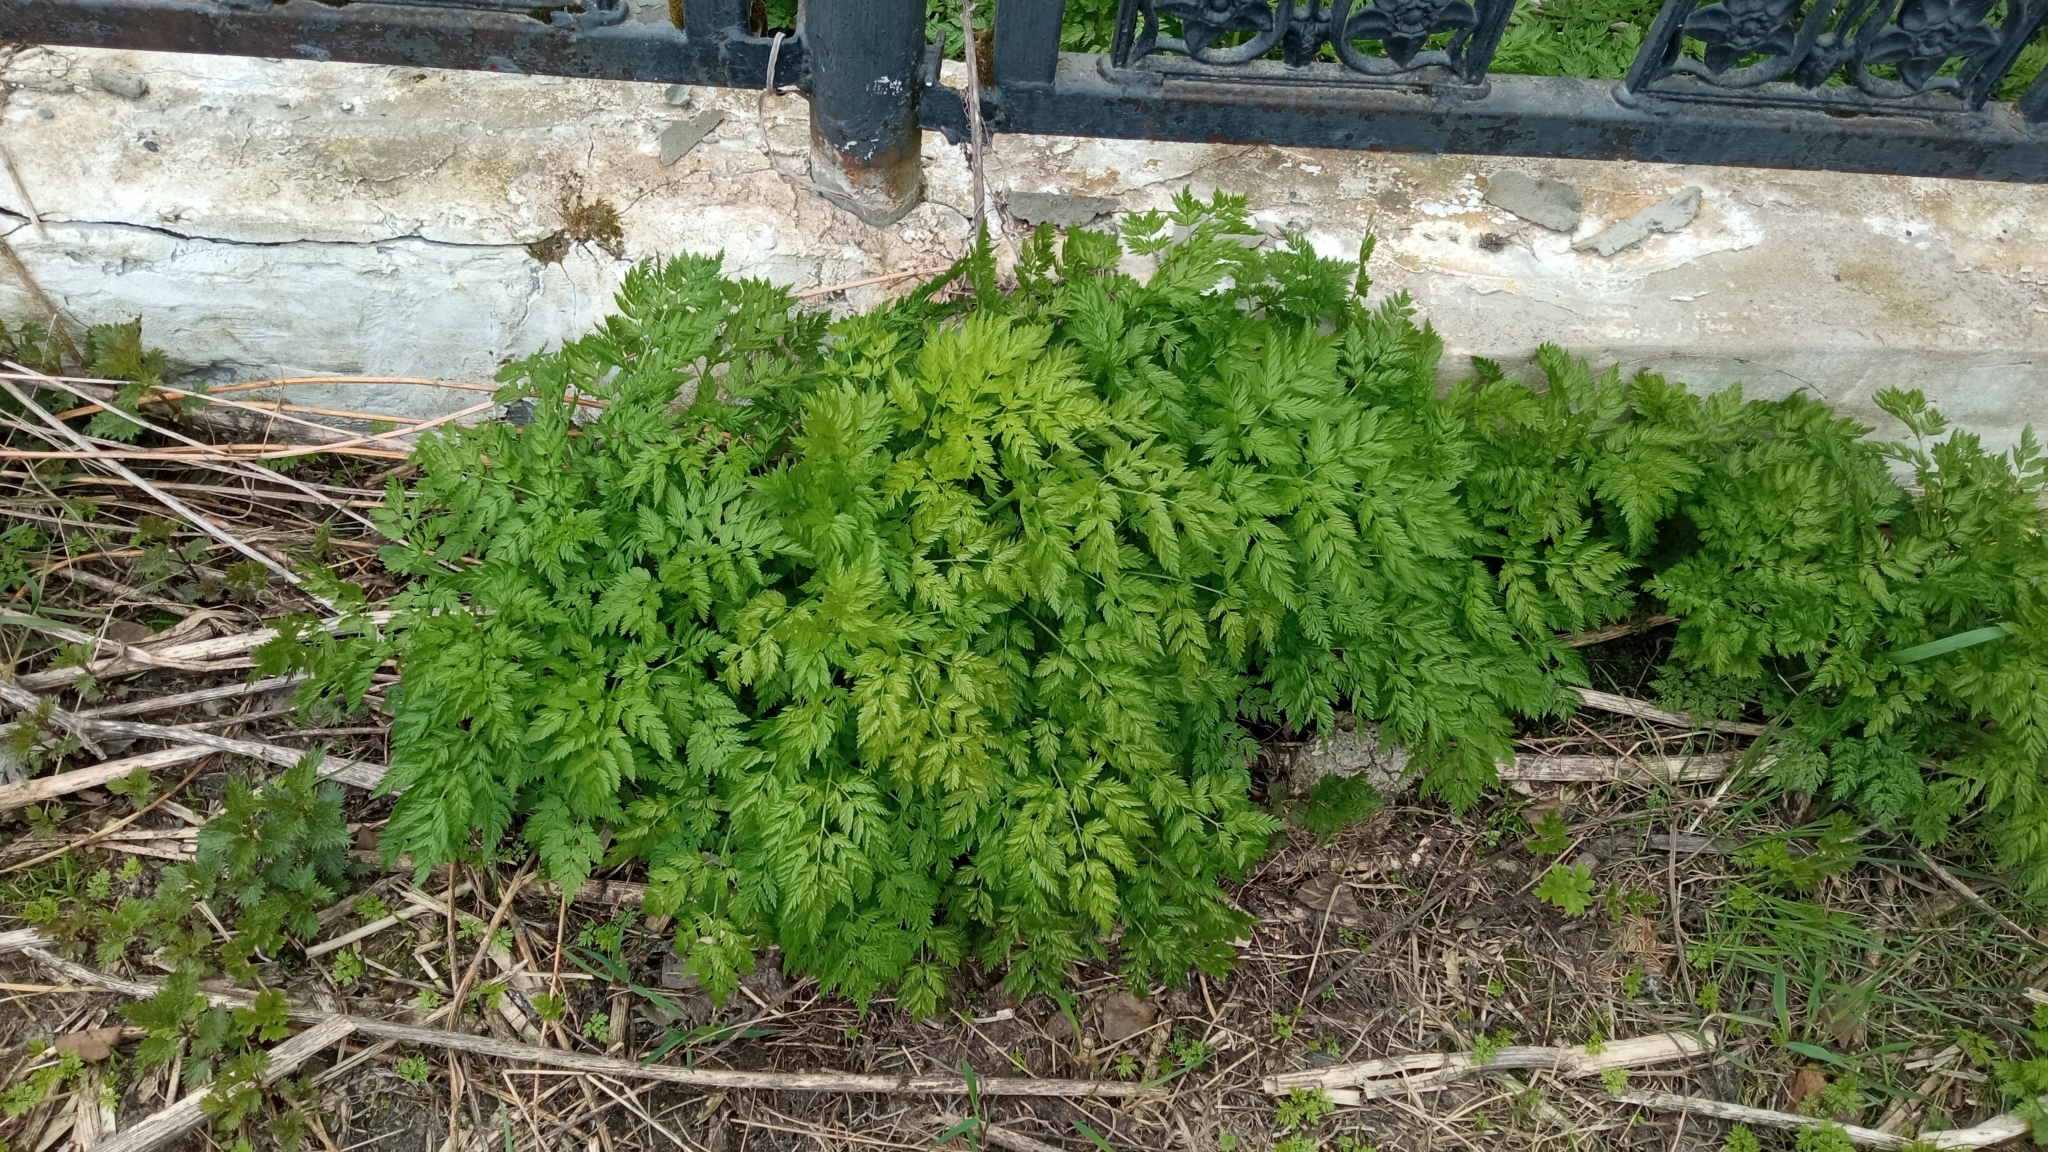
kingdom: Plantae
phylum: Tracheophyta
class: Magnoliopsida
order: Apiales
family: Apiaceae
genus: Anthriscus
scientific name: Anthriscus sylvestris
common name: Cow parsley
